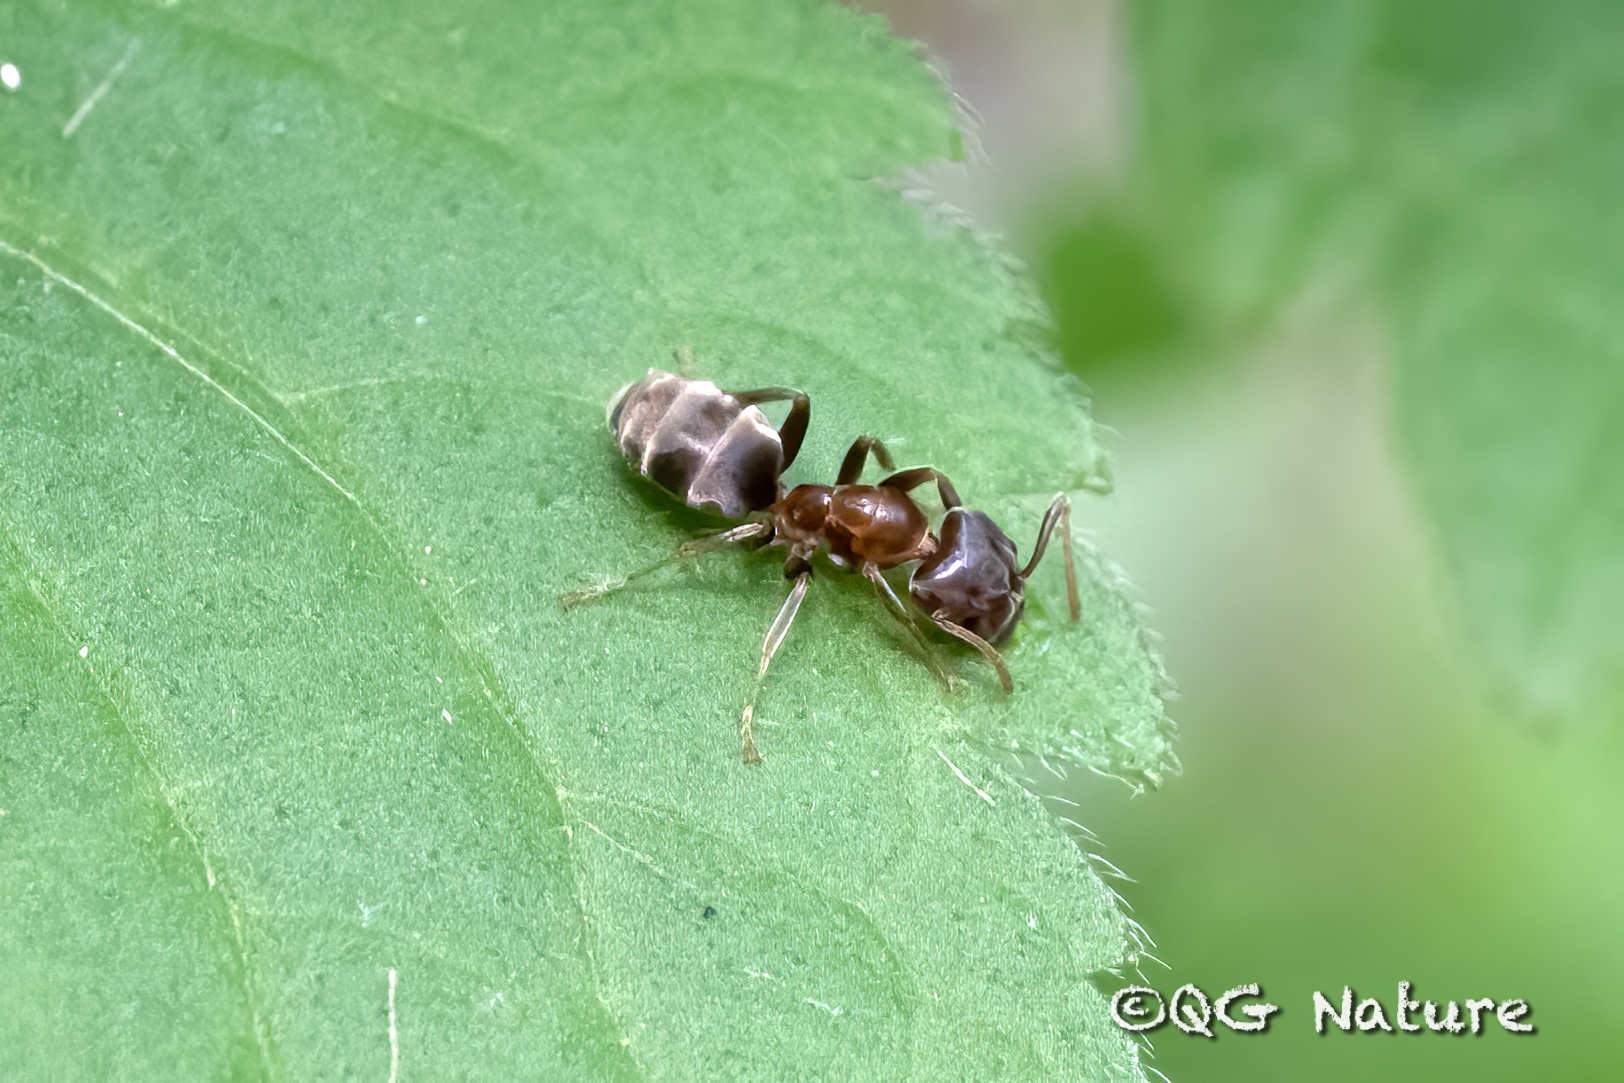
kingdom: Animalia
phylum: Arthropoda
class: Insecta
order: Hymenoptera
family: Formicidae
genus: Liometopum
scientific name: Liometopum sinense
